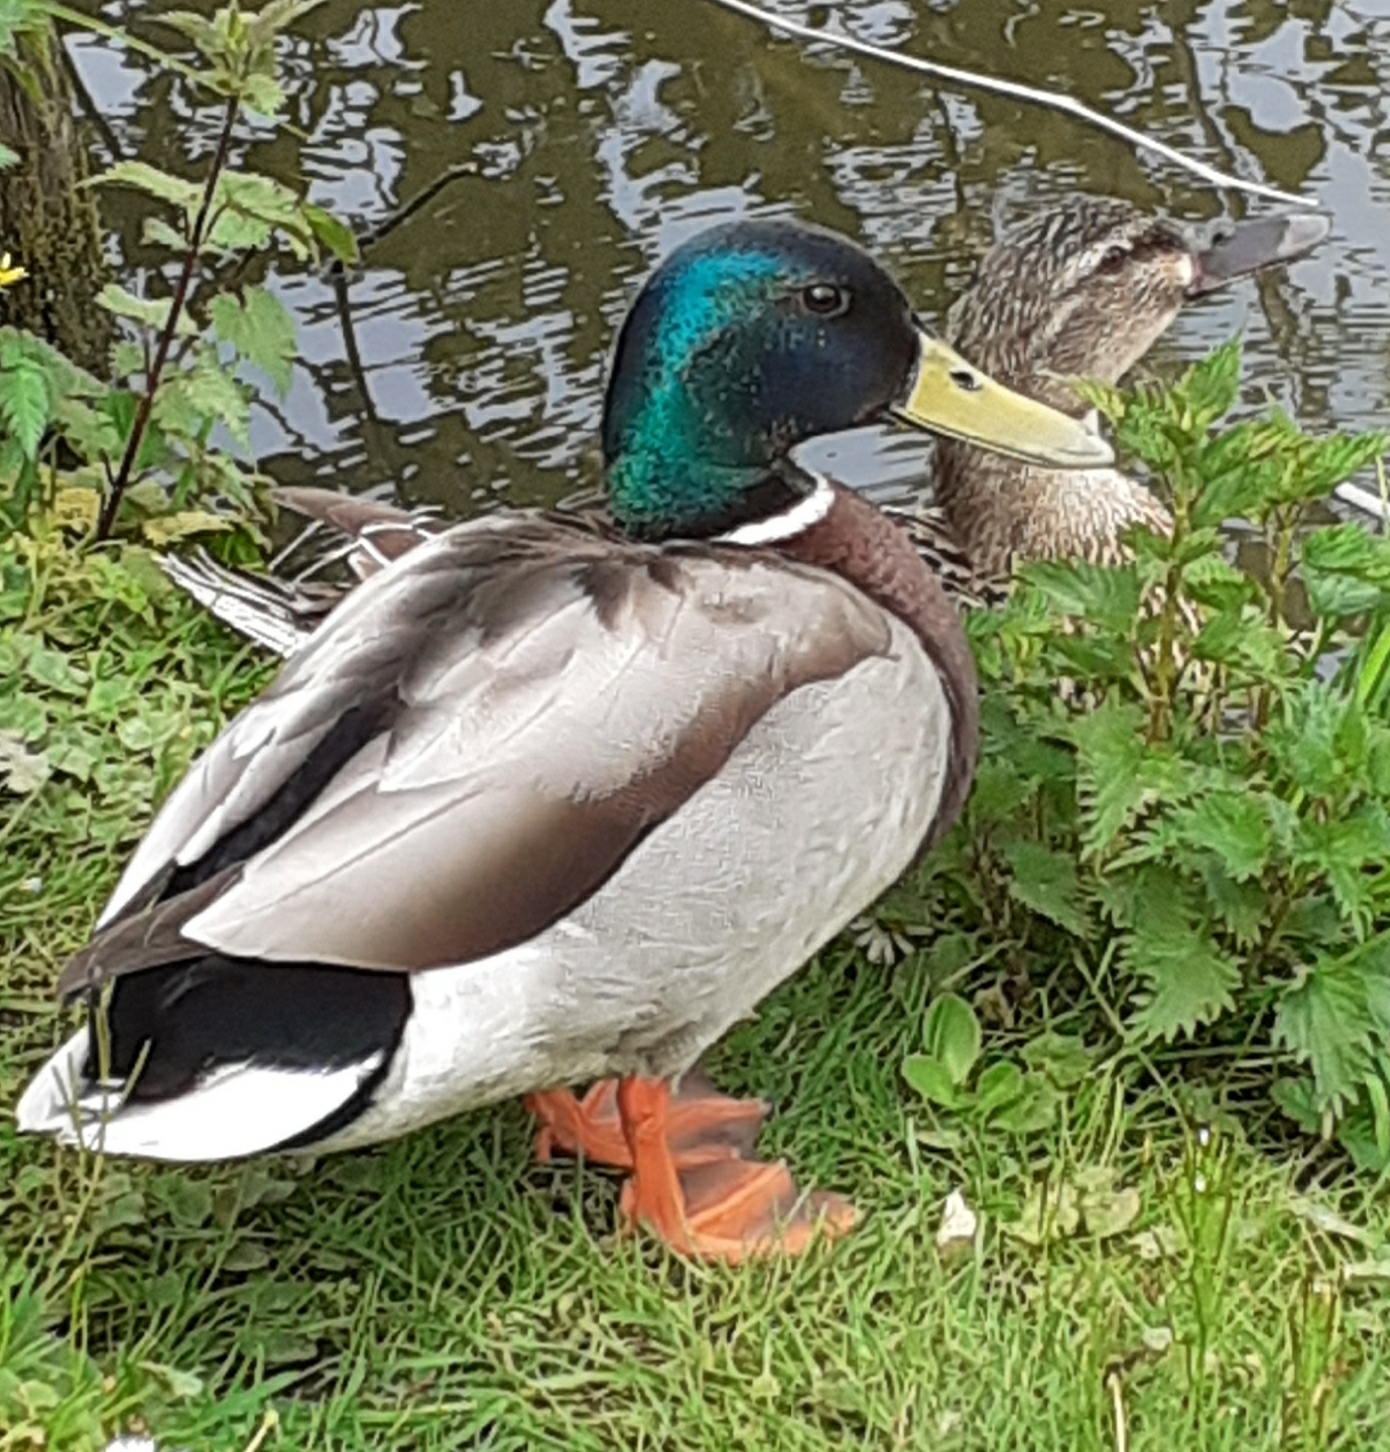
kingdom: Animalia
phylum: Chordata
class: Aves
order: Anseriformes
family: Anatidae
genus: Anas
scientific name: Anas platyrhynchos
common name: Mallard
